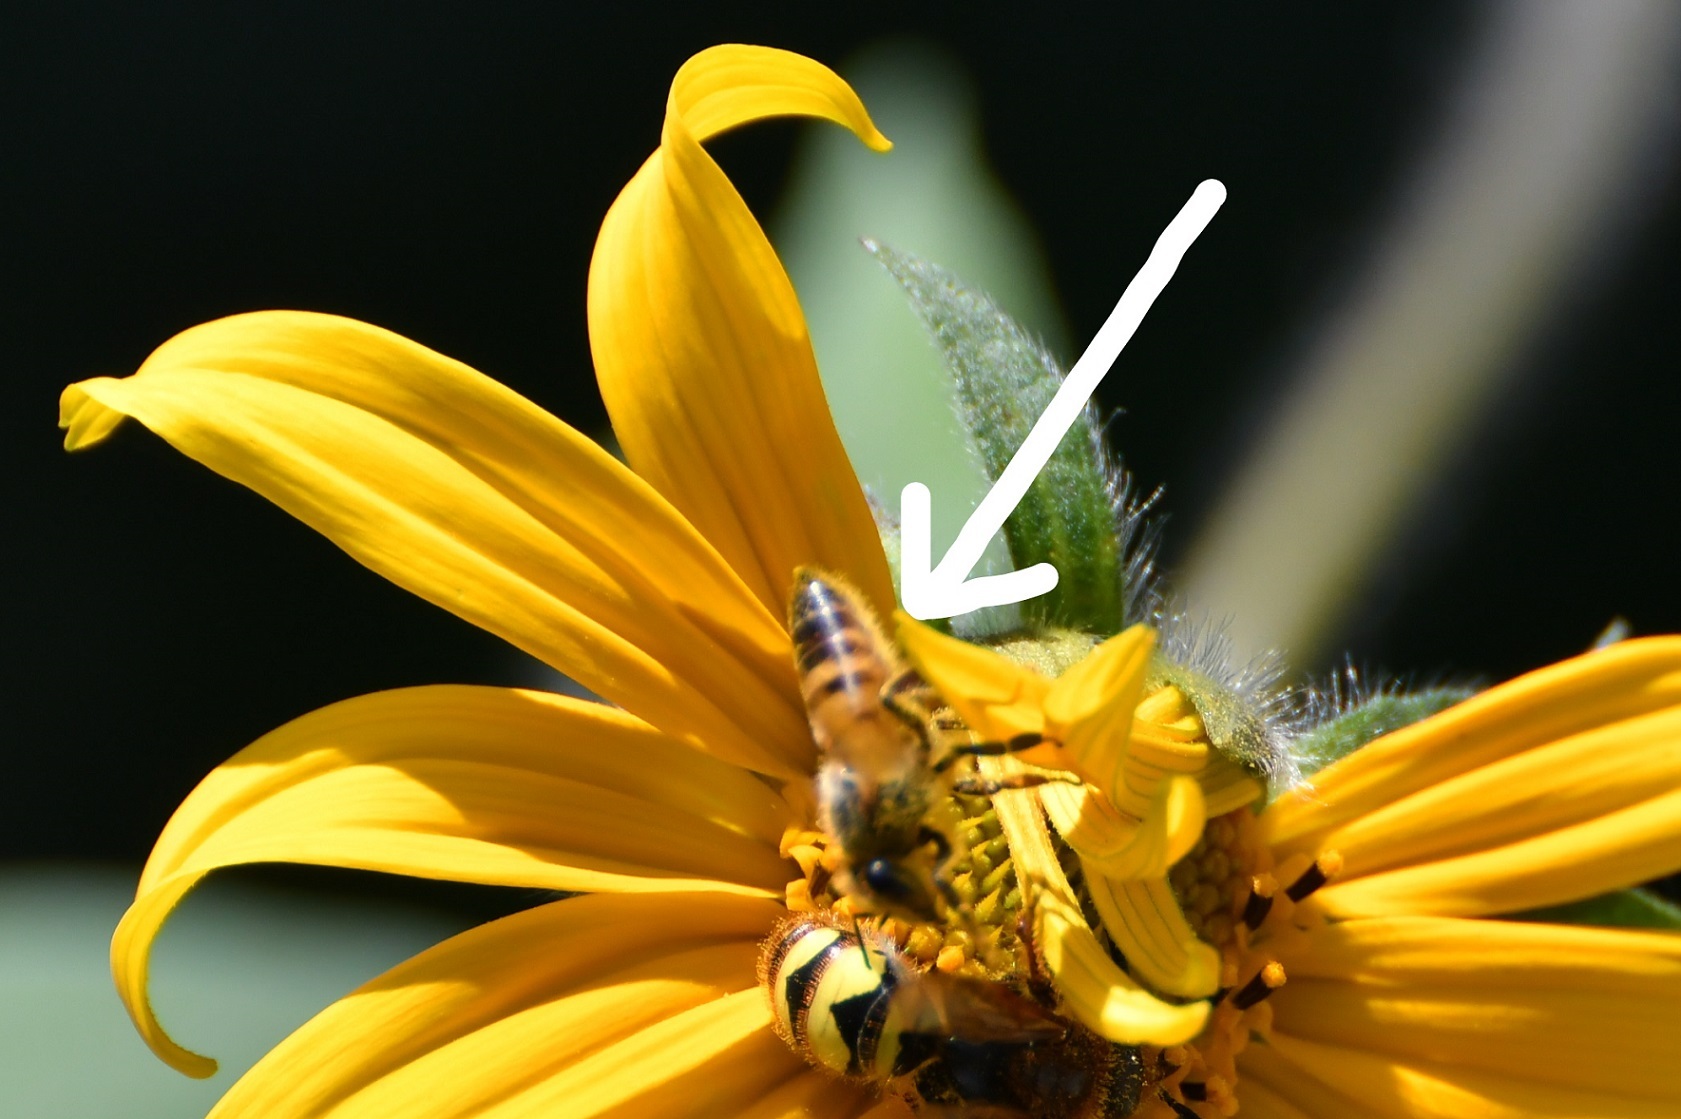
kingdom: Animalia
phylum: Arthropoda
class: Insecta
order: Hymenoptera
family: Apidae
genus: Apis
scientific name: Apis mellifera
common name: Honey bee
